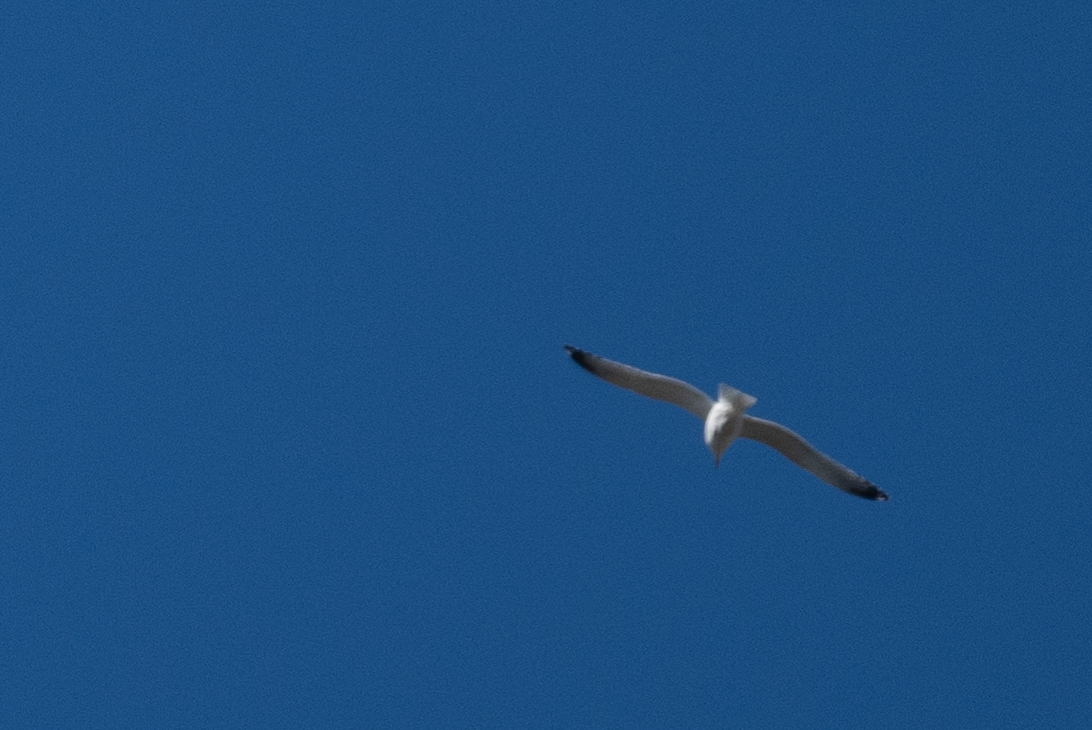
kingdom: Animalia
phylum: Chordata
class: Aves
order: Charadriiformes
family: Laridae
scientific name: Laridae
